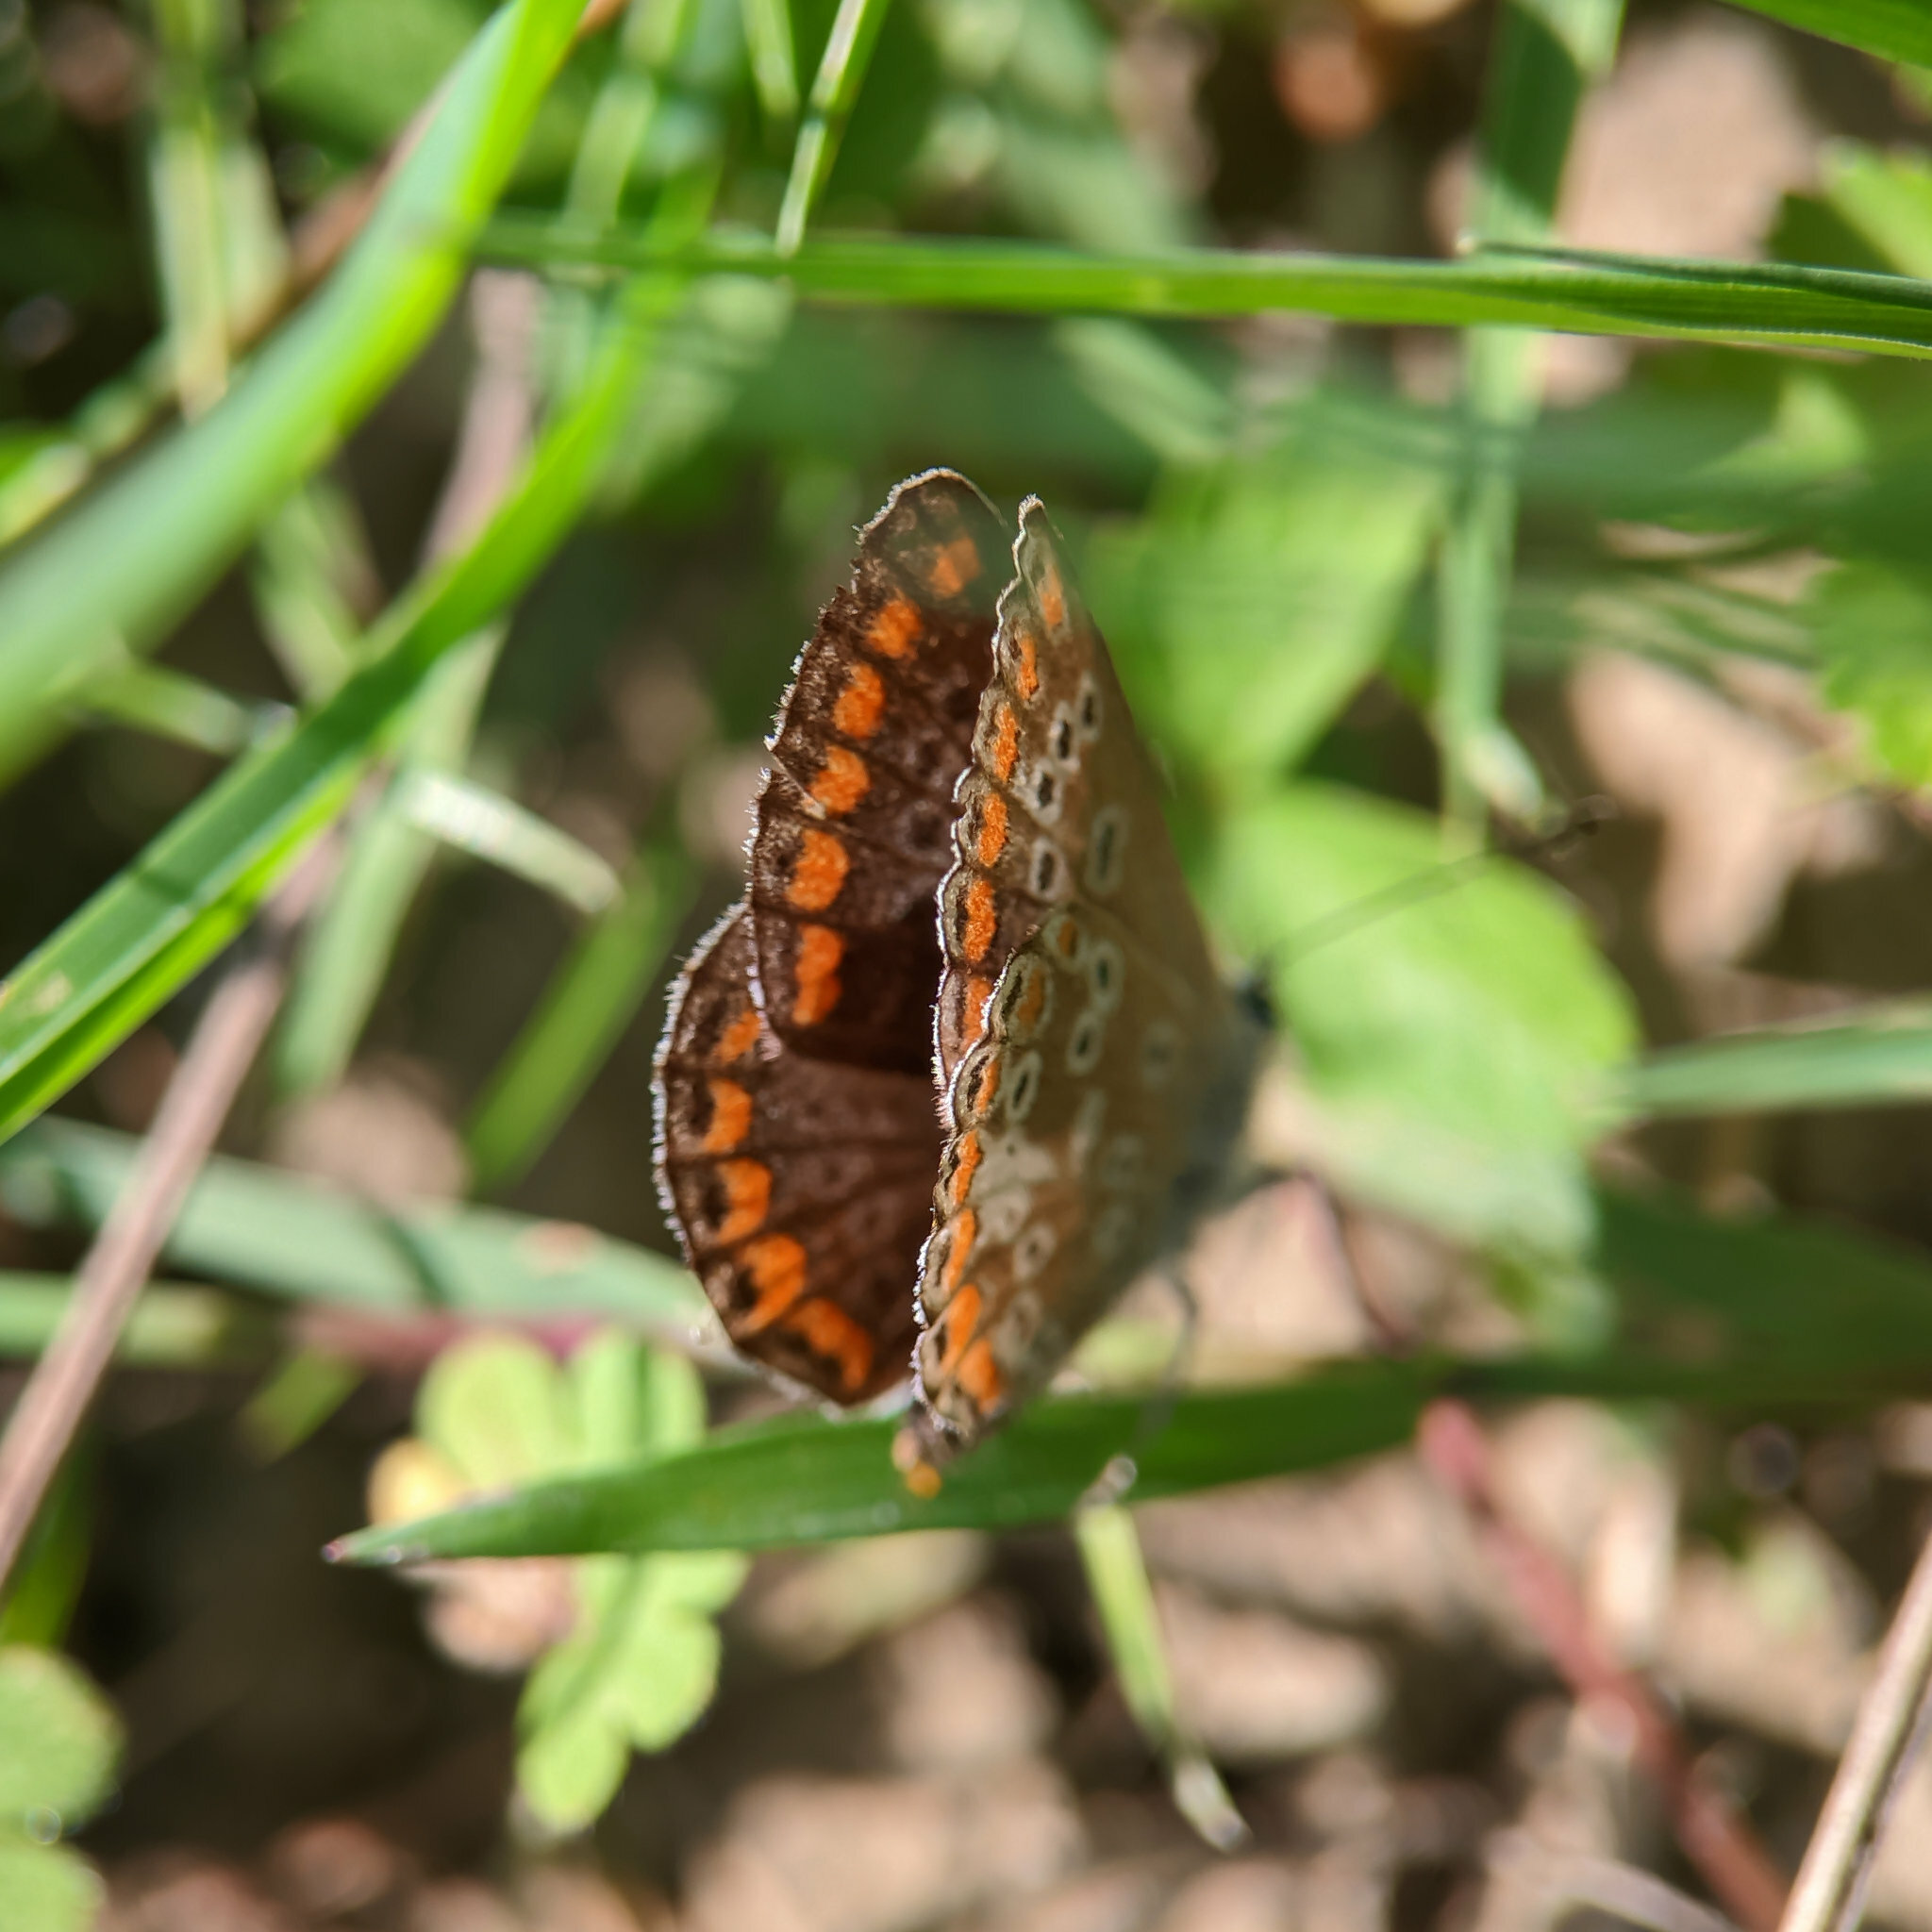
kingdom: Animalia
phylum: Arthropoda
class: Insecta
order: Lepidoptera
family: Lycaenidae
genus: Aricia
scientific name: Aricia agestis
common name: Brown argus
